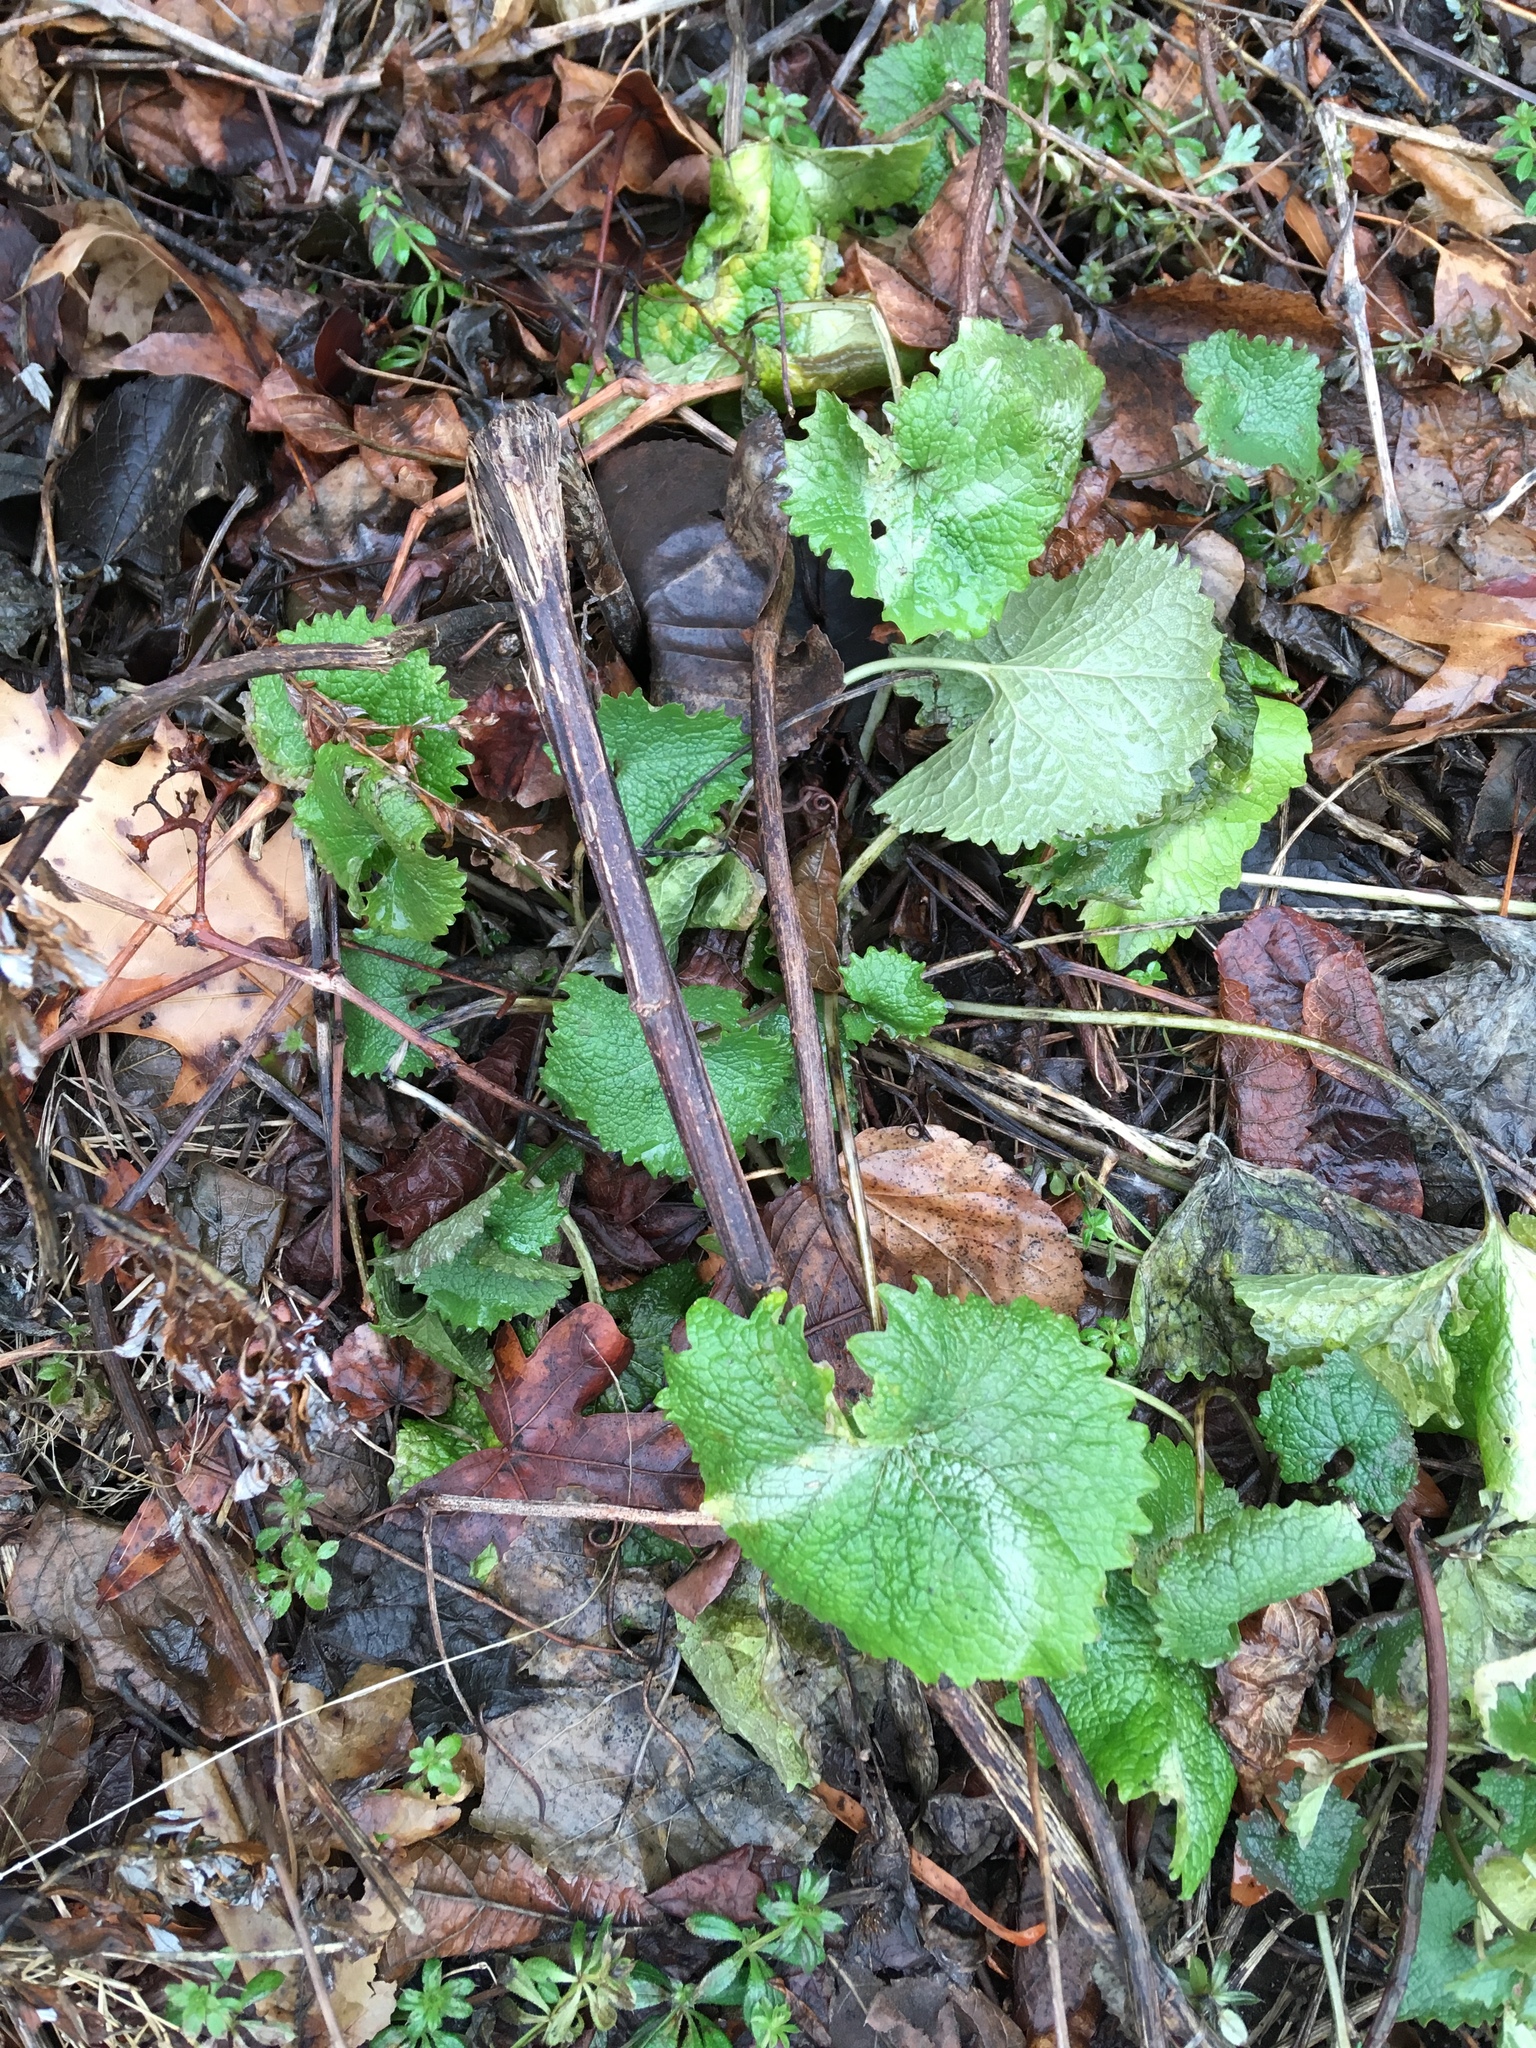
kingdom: Plantae
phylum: Tracheophyta
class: Magnoliopsida
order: Brassicales
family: Brassicaceae
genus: Alliaria
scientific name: Alliaria petiolata
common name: Garlic mustard
